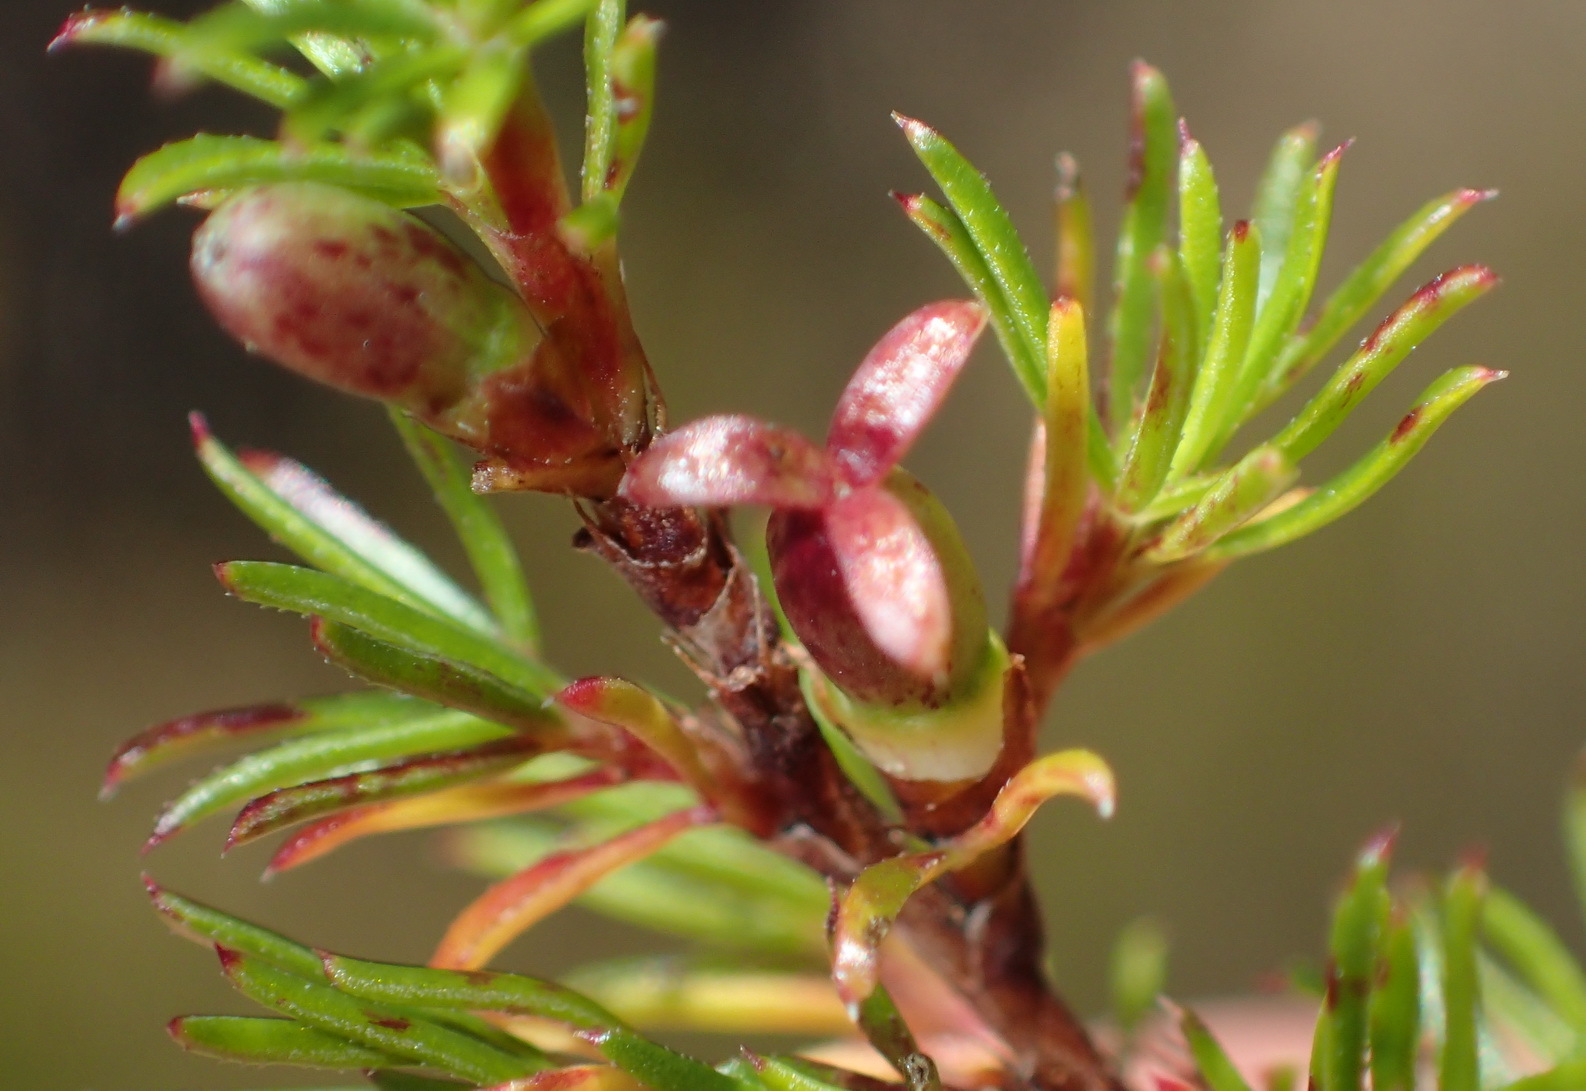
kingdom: Plantae
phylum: Tracheophyta
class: Magnoliopsida
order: Rosales
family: Rosaceae
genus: Cliffortia
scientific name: Cliffortia filifolia
